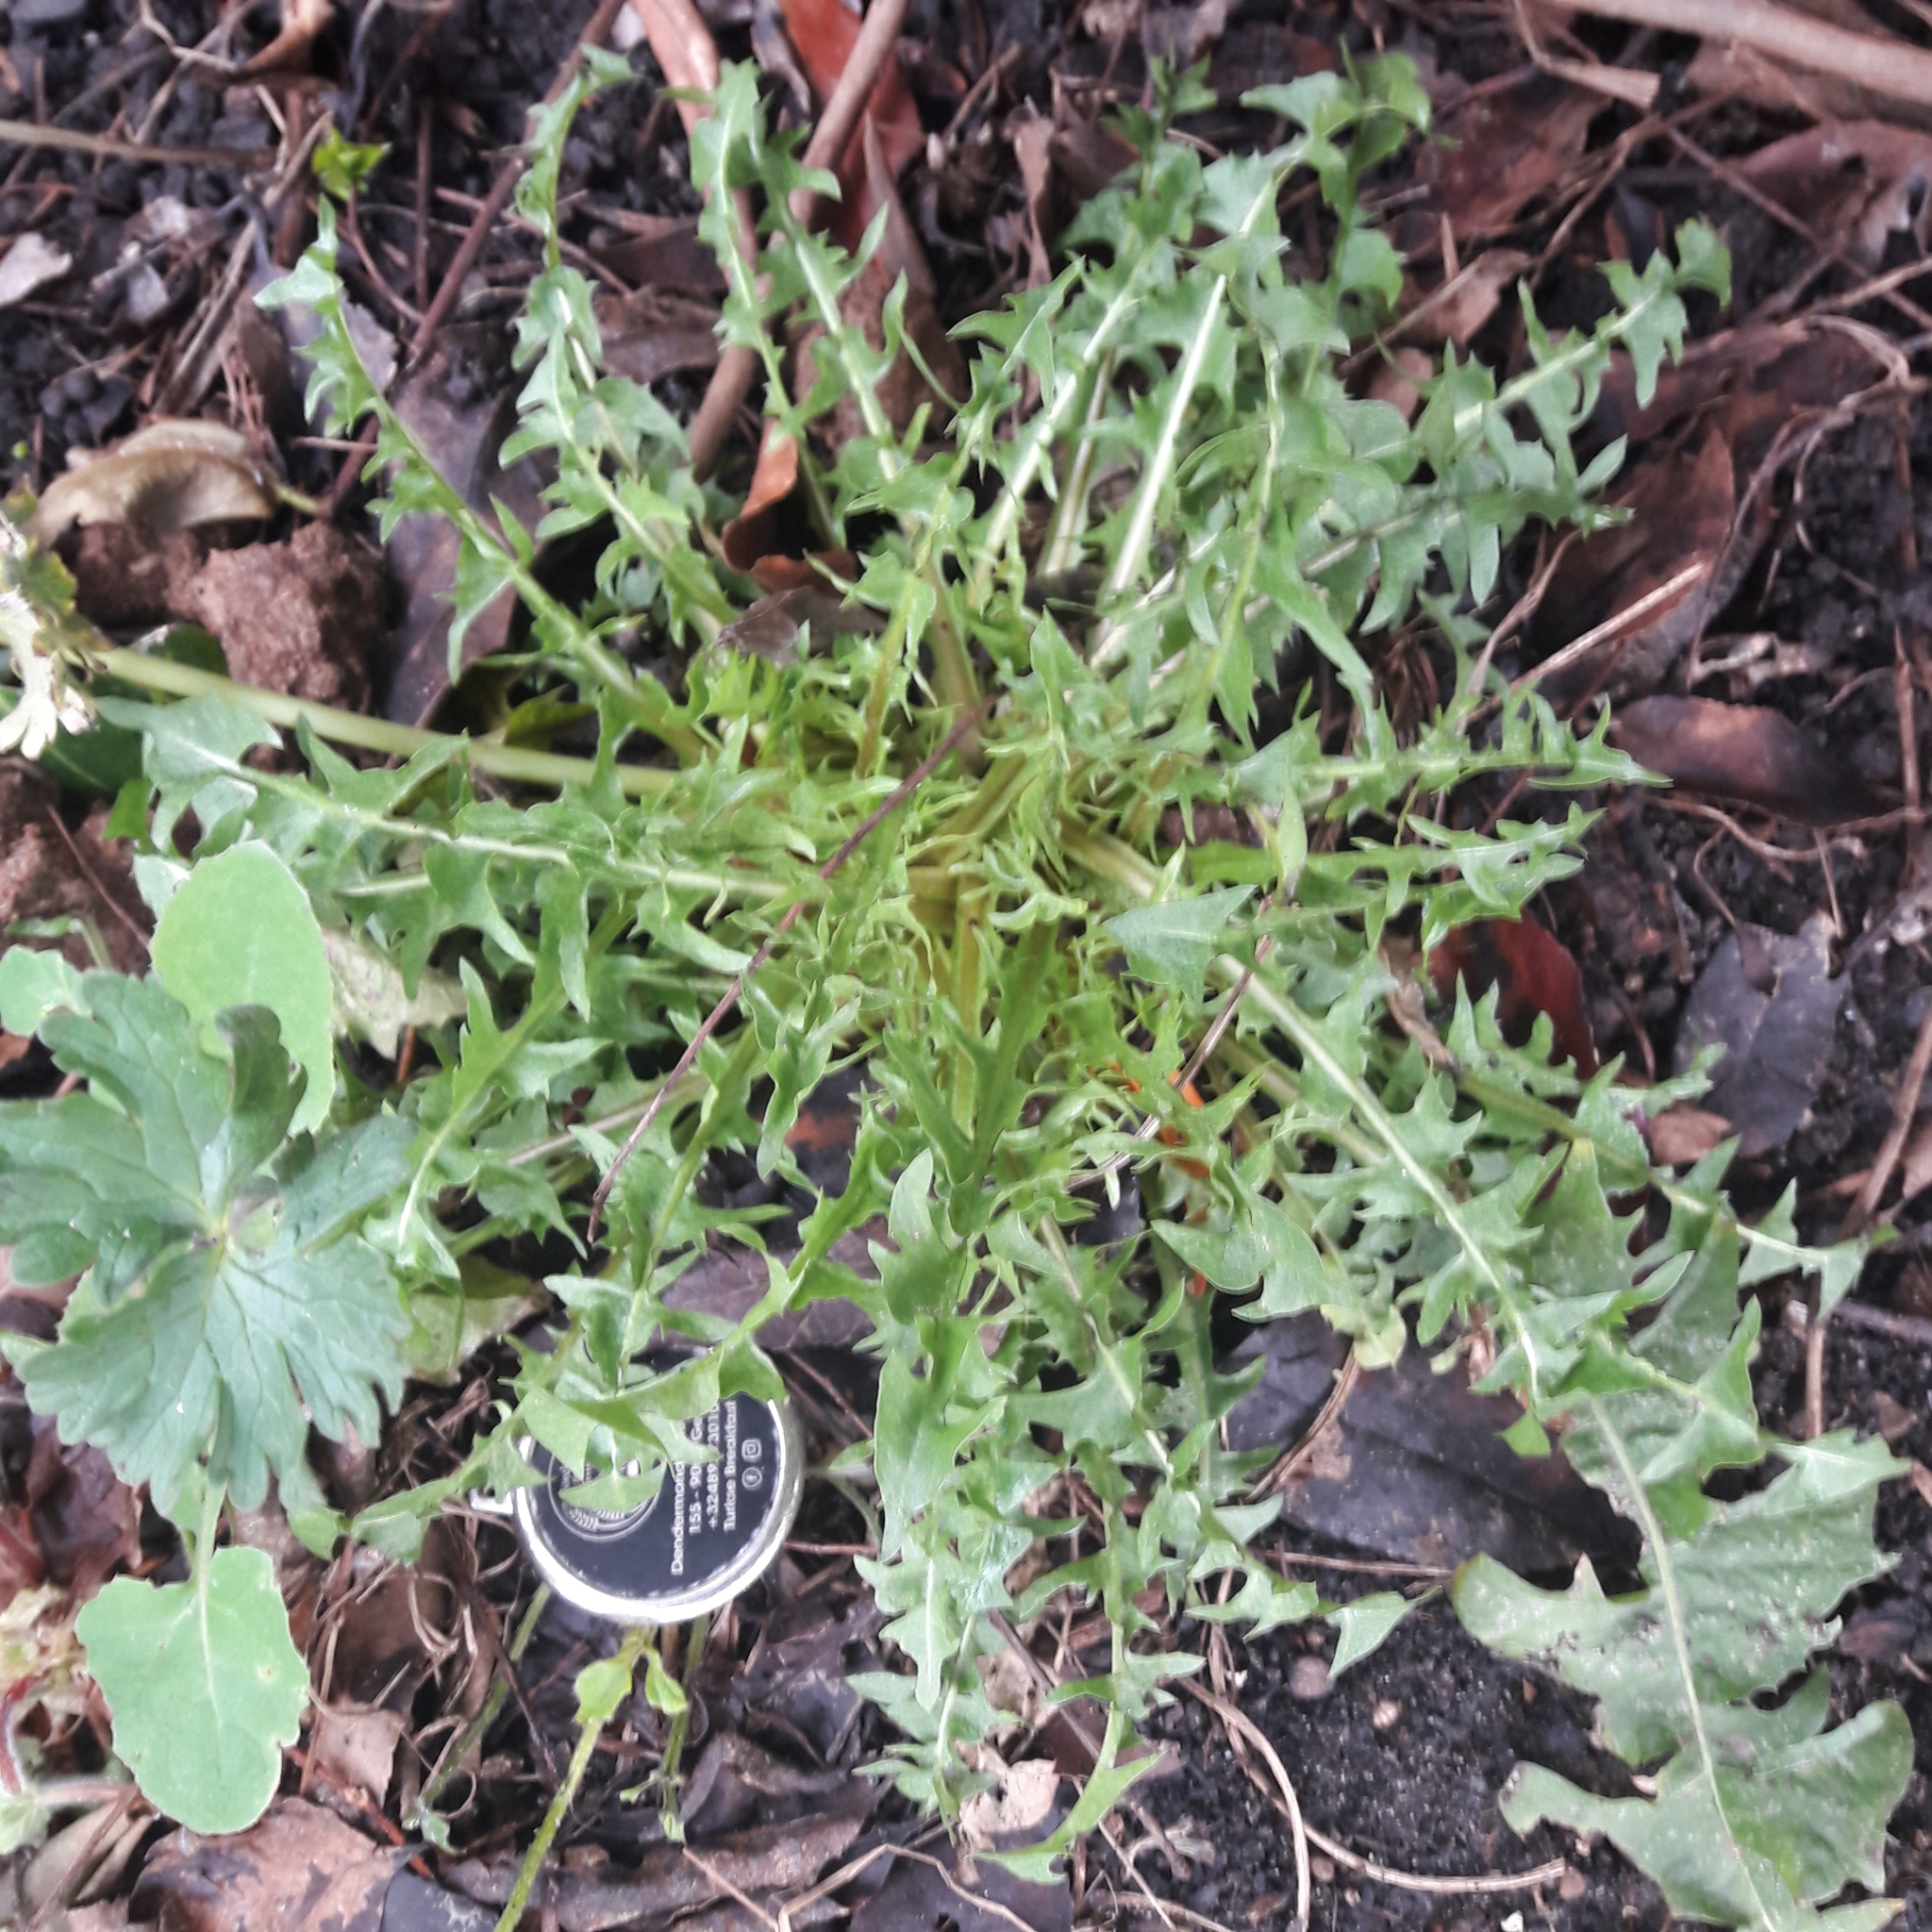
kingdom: Plantae
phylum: Tracheophyta
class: Magnoliopsida
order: Asterales
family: Asteraceae
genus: Taraxacum
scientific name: Taraxacum officinale
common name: Common dandelion
